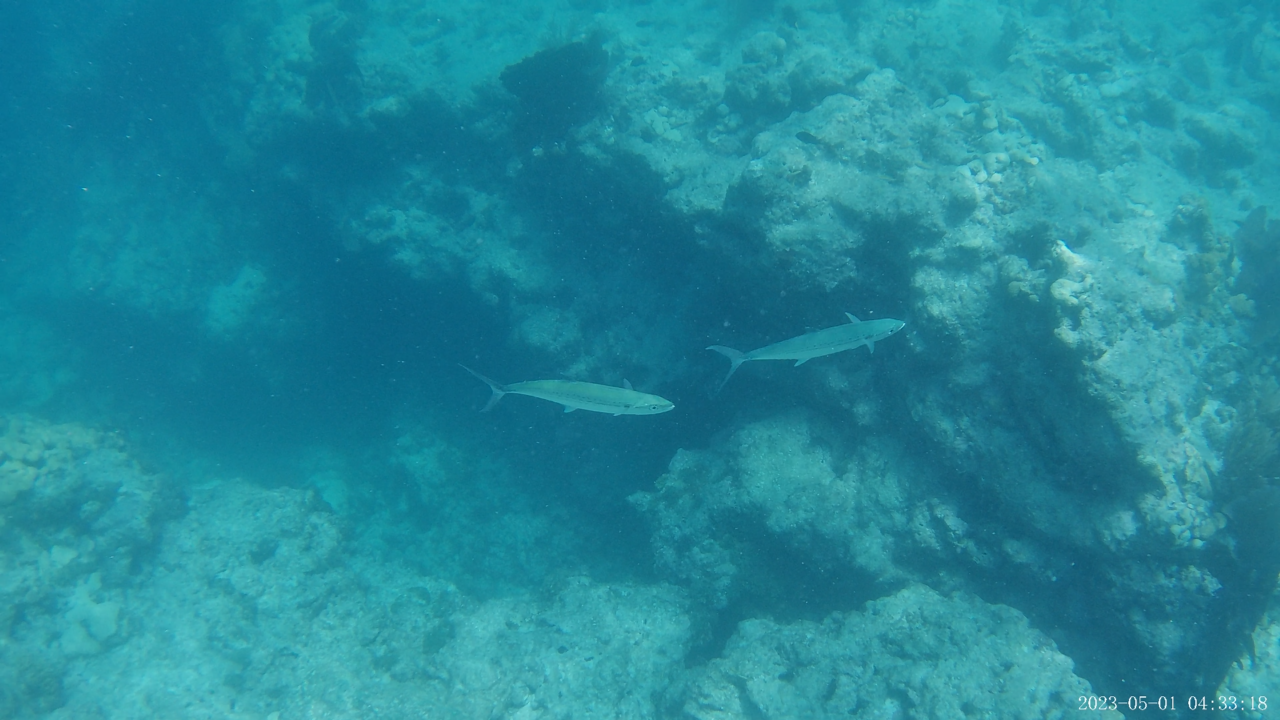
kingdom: Animalia
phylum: Chordata
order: Perciformes
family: Scombridae
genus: Scomberomorus
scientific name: Scomberomorus regalis
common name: Cero
